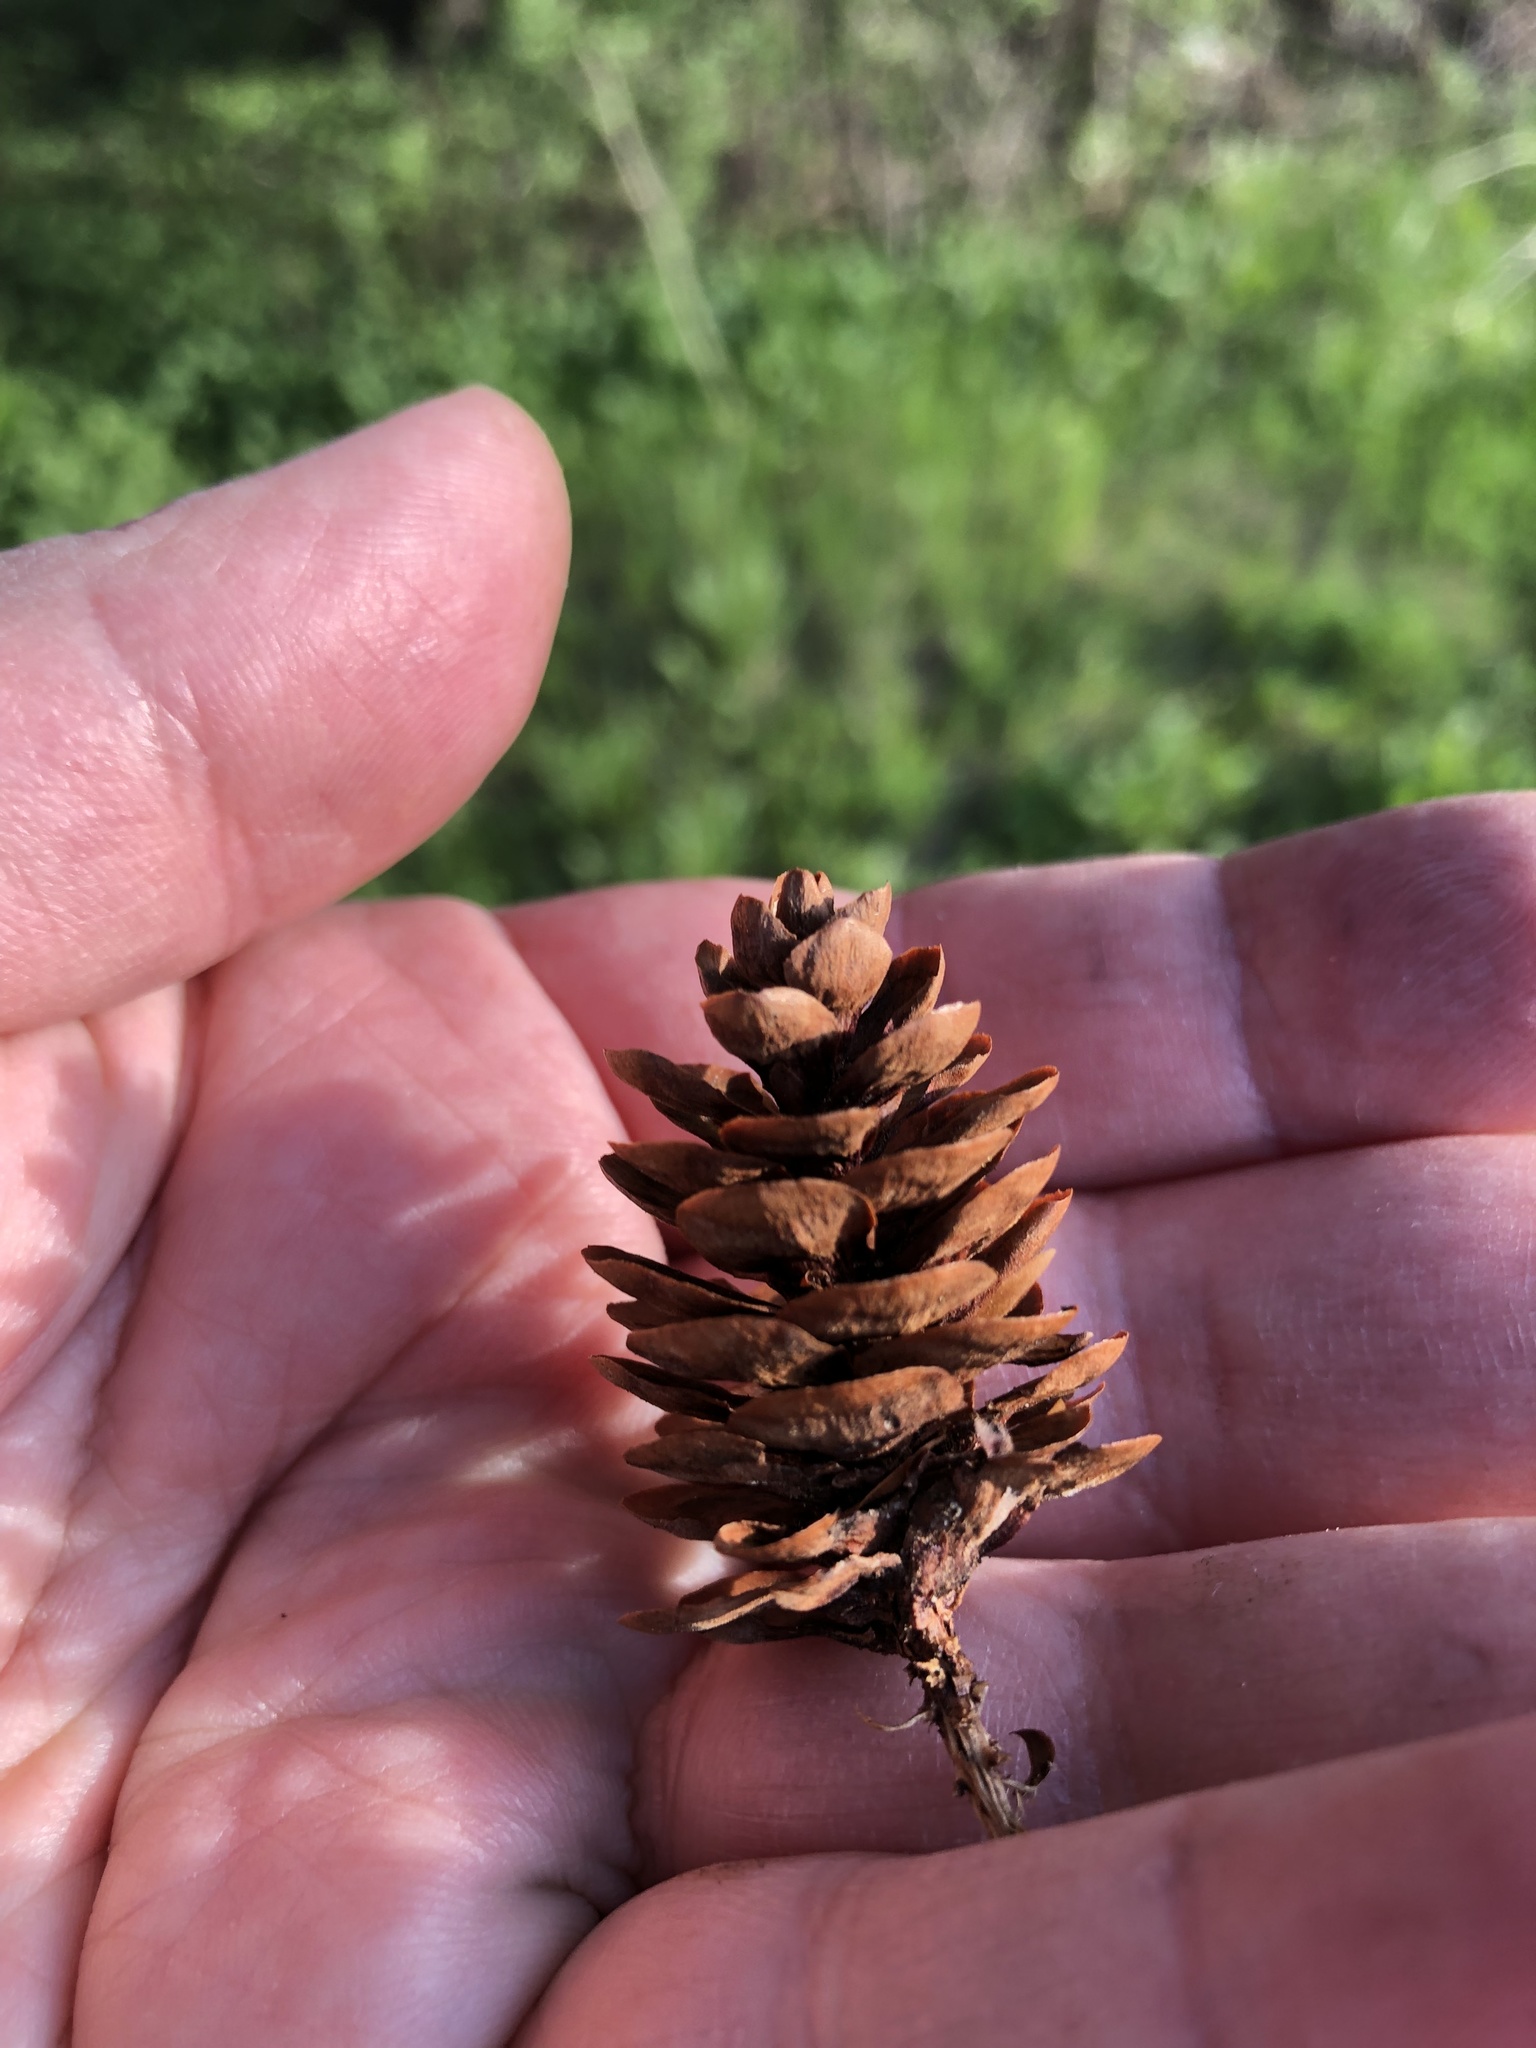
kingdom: Plantae
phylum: Tracheophyta
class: Pinopsida
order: Pinales
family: Pinaceae
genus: Picea
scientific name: Picea glauca
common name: White spruce
